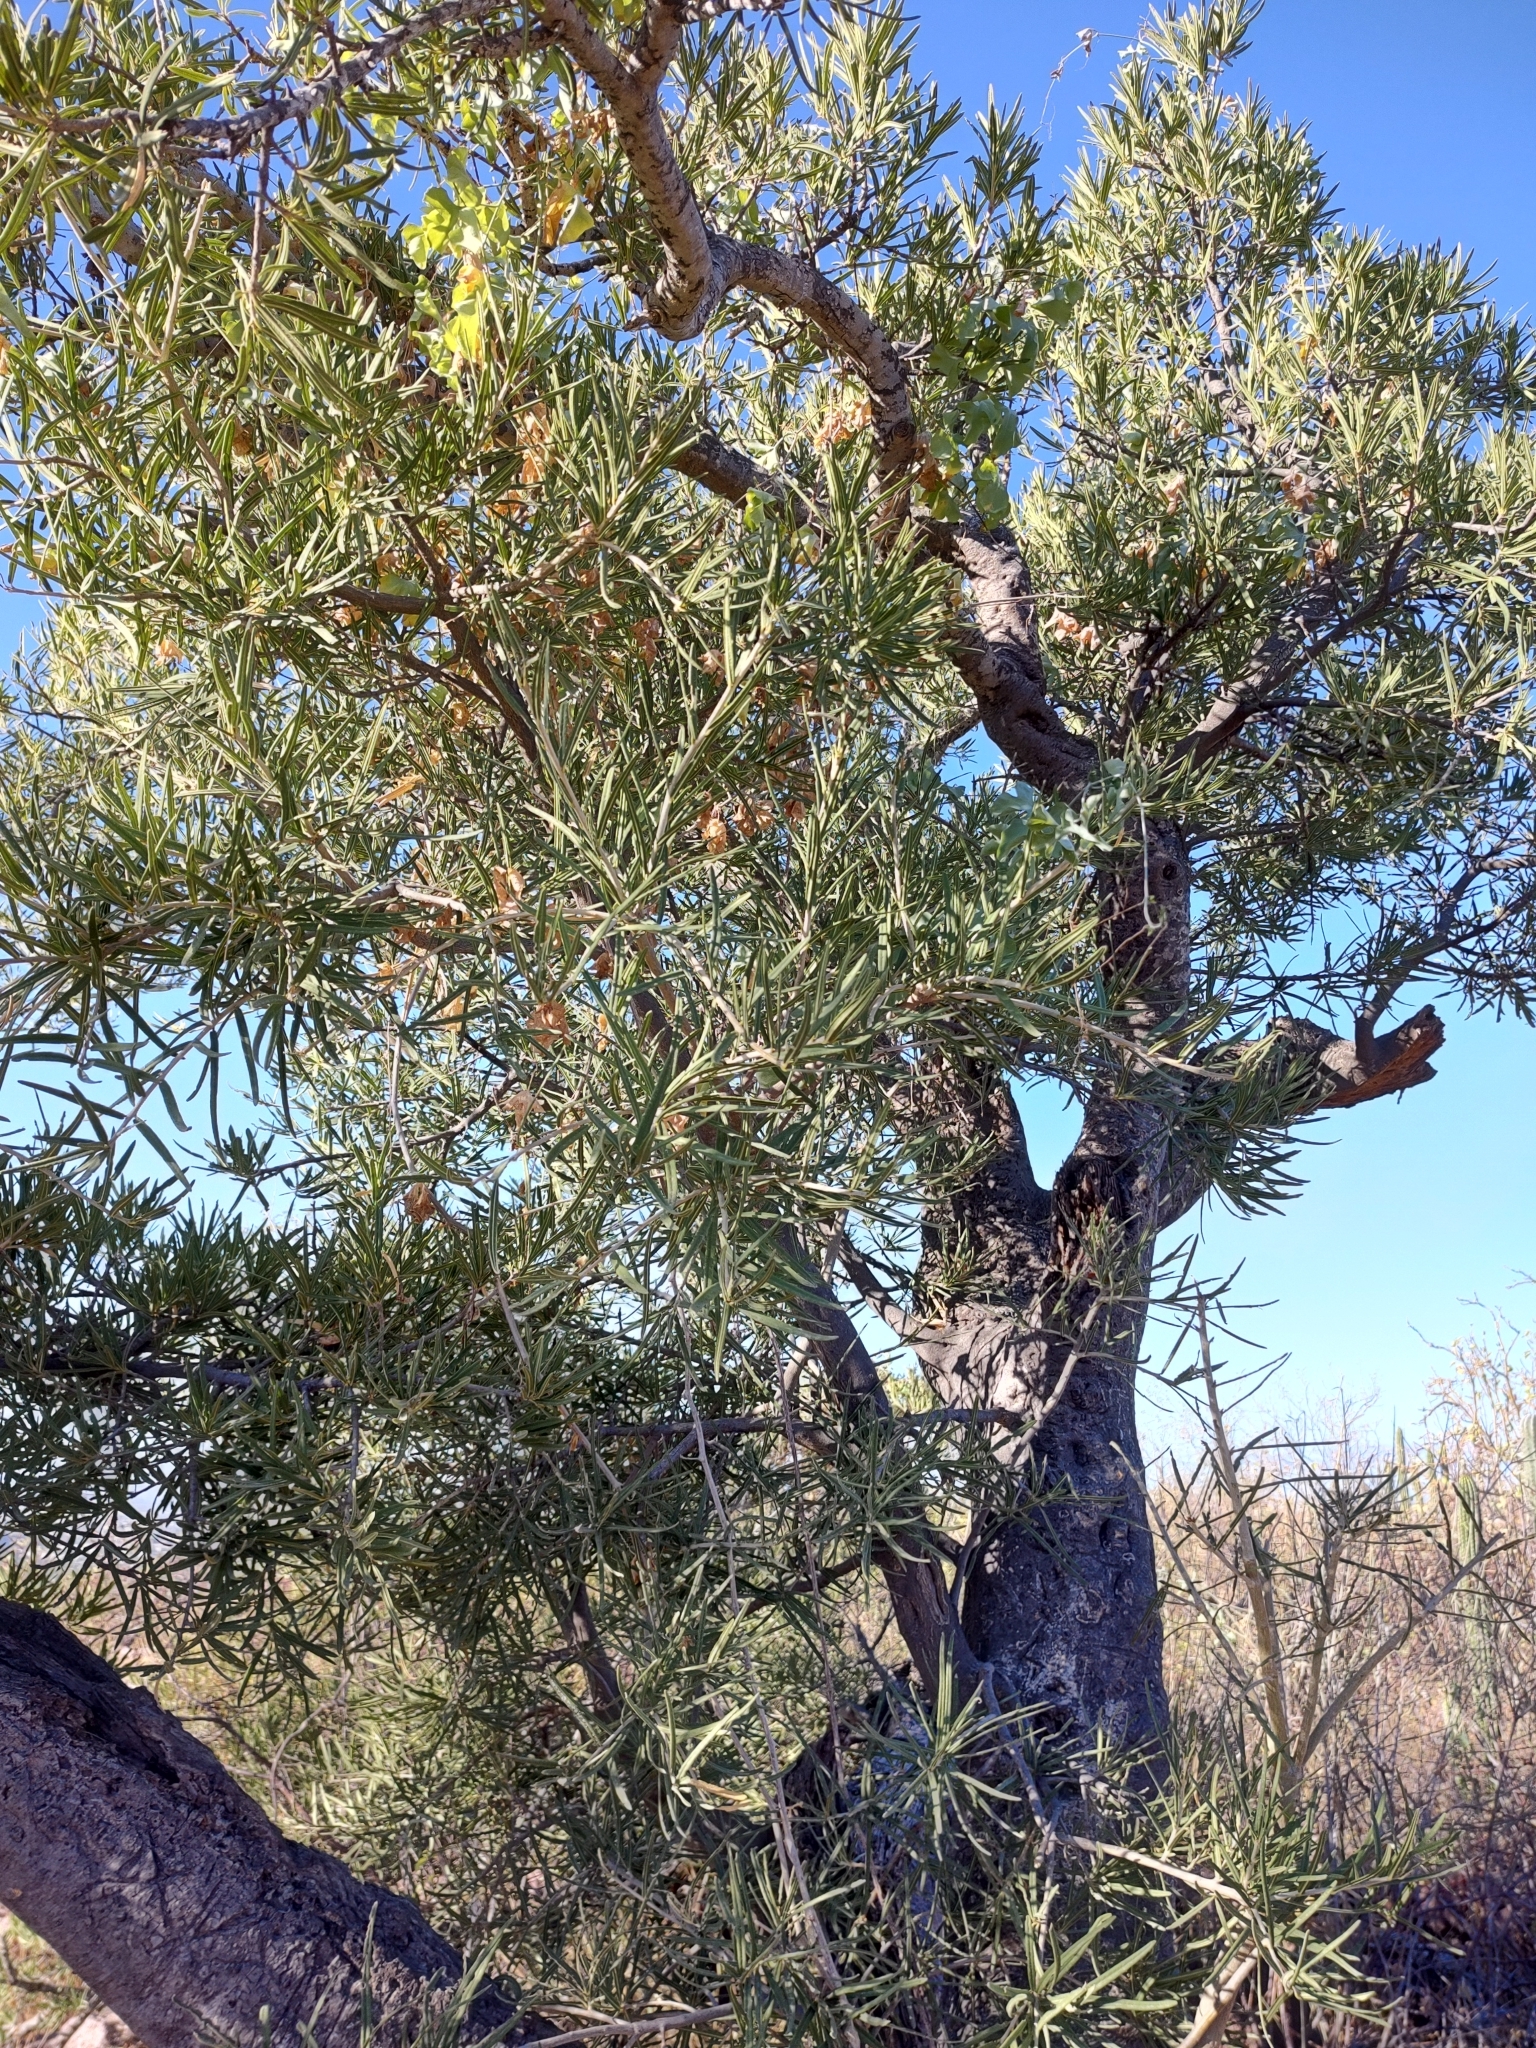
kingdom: Plantae
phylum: Tracheophyta
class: Magnoliopsida
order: Brassicales
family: Stixaceae
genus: Forchhammeria
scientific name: Forchhammeria watsonii
